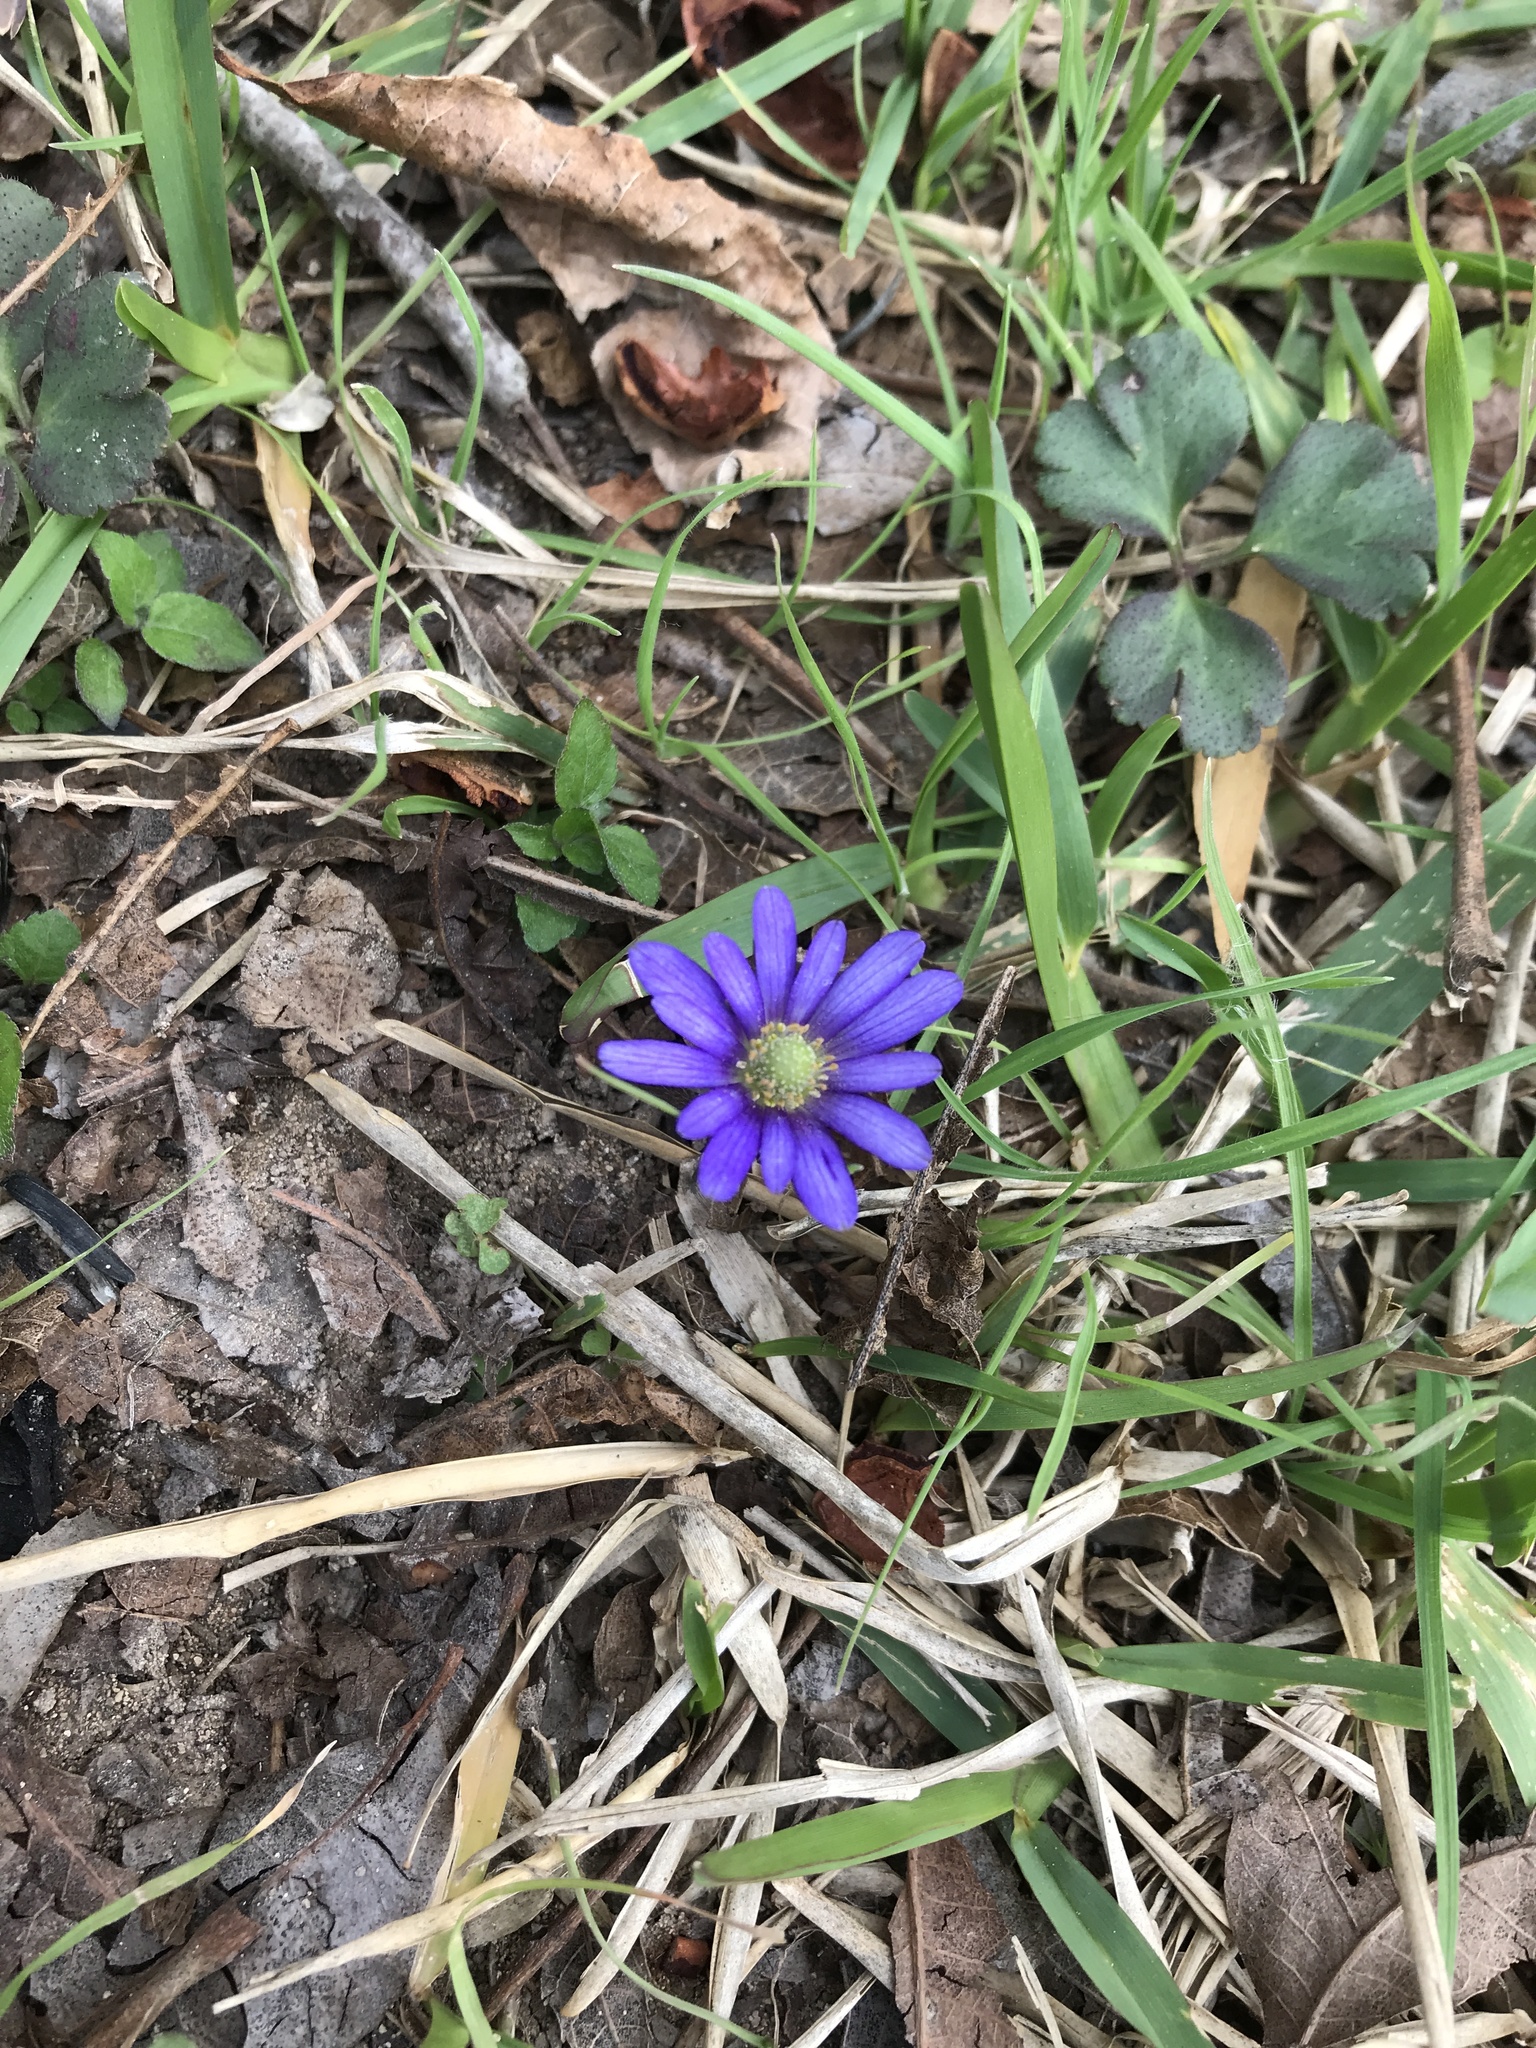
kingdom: Plantae
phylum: Tracheophyta
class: Magnoliopsida
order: Ranunculales
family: Ranunculaceae
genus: Anemone
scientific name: Anemone berlandieri
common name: Ten-petal anemone
